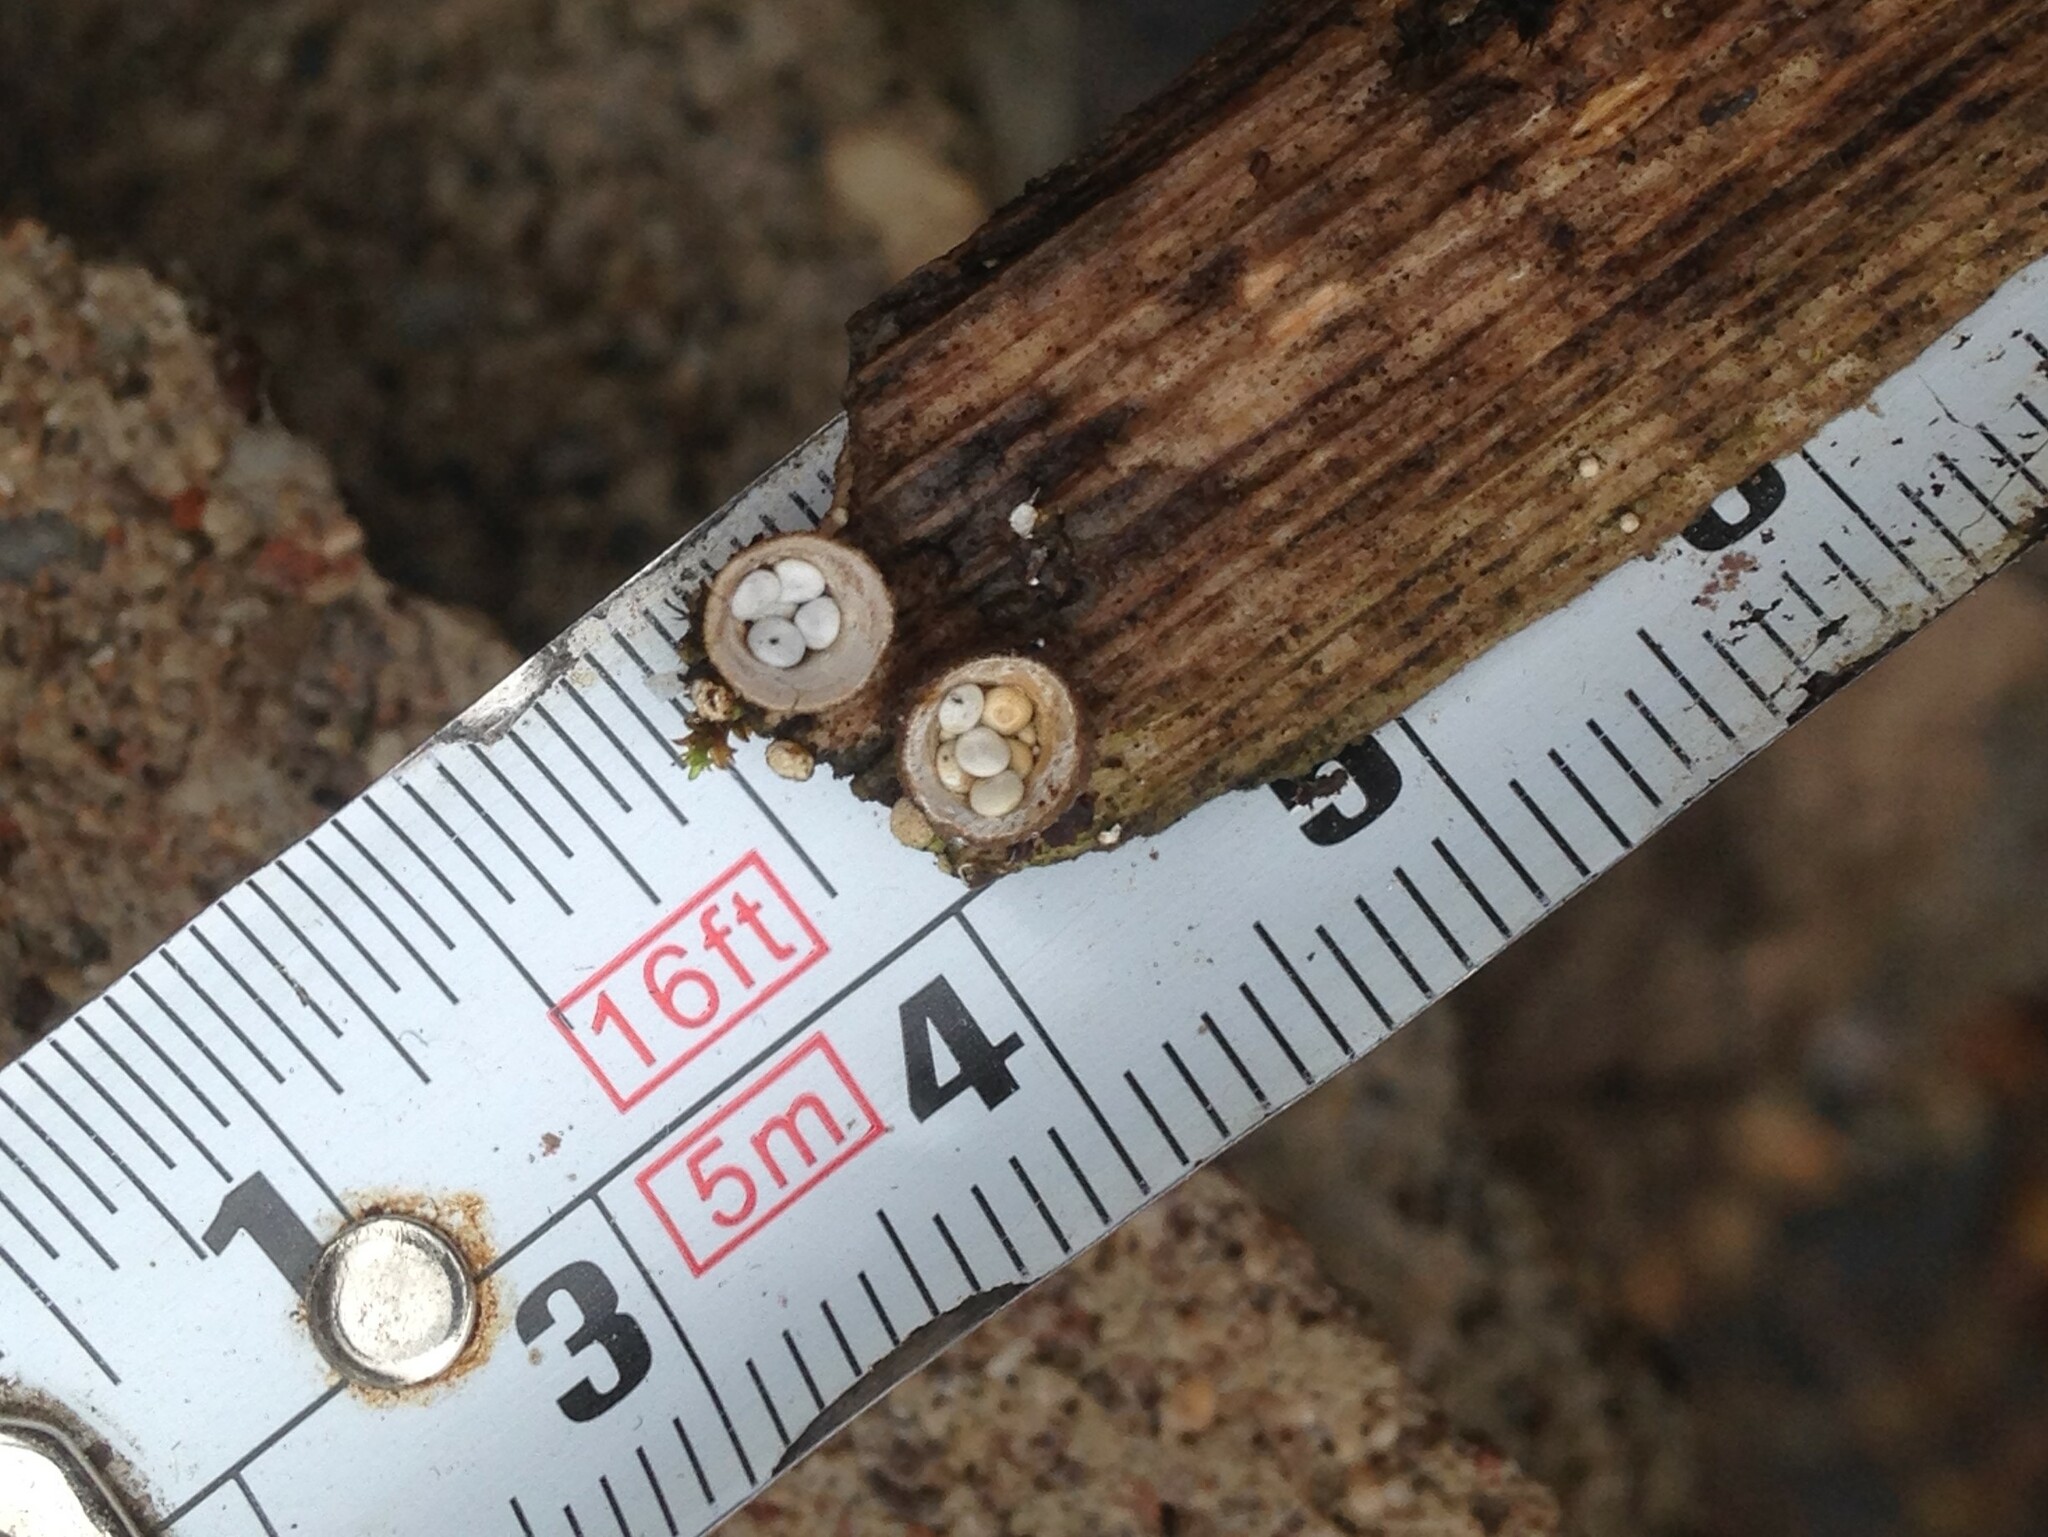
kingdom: Fungi
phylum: Basidiomycota
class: Agaricomycetes
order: Agaricales
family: Nidulariaceae
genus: Crucibulum
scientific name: Crucibulum laeve
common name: Common bird's nest
